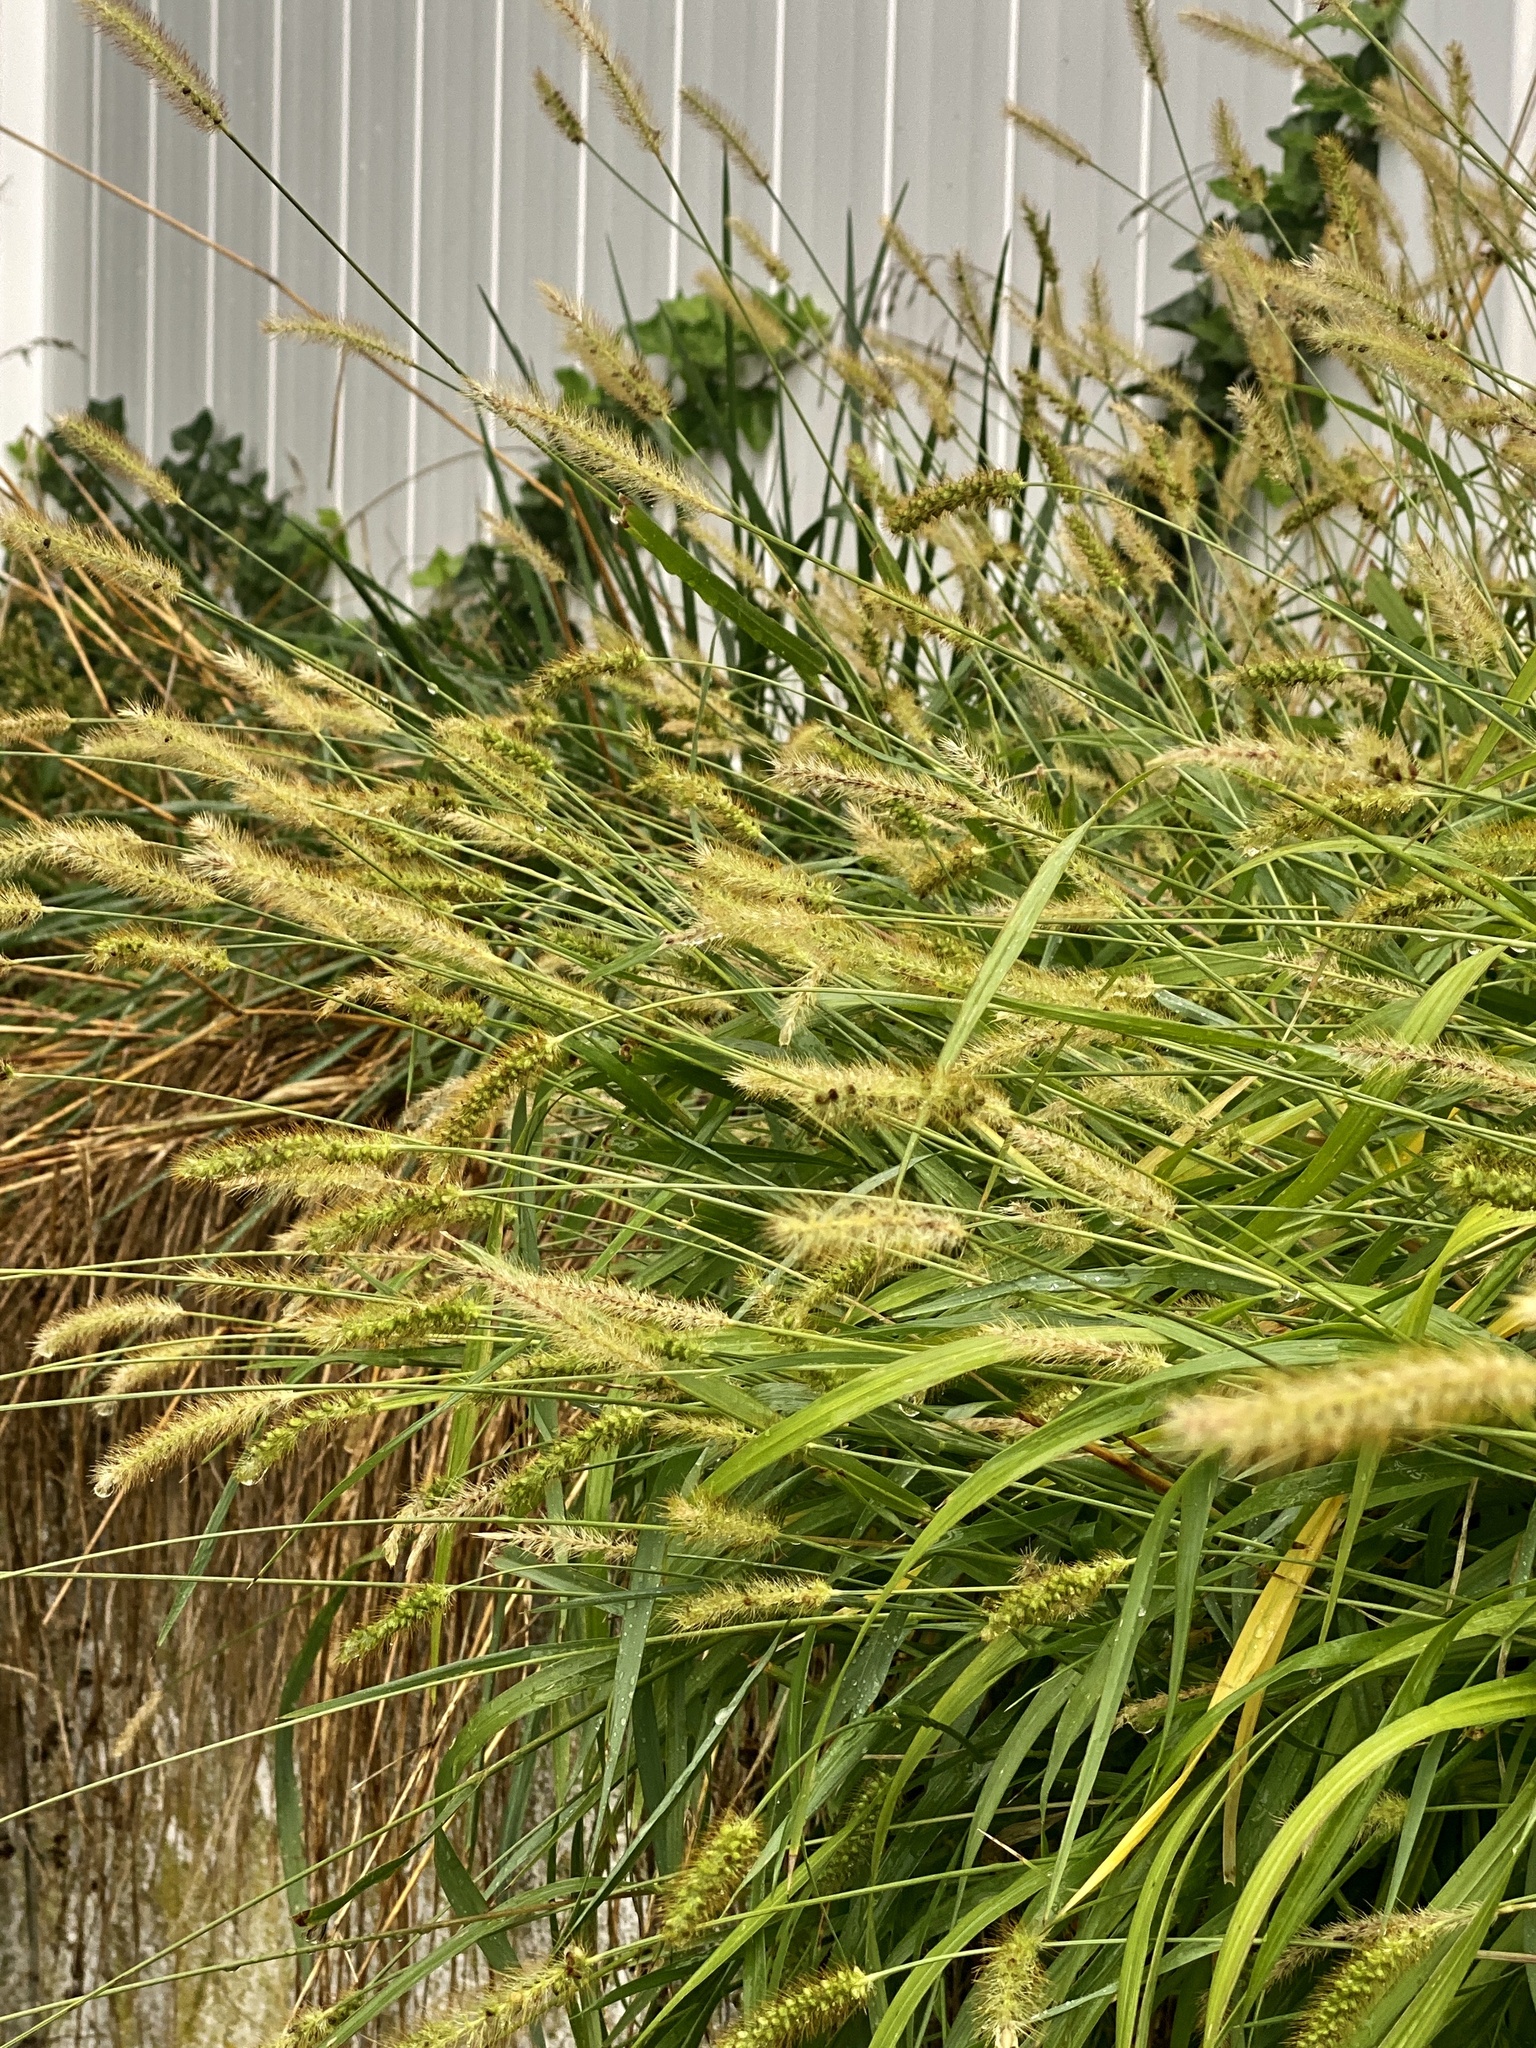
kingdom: Plantae
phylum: Tracheophyta
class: Liliopsida
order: Poales
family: Poaceae
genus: Setaria
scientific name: Setaria pumila
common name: Yellow bristle-grass
